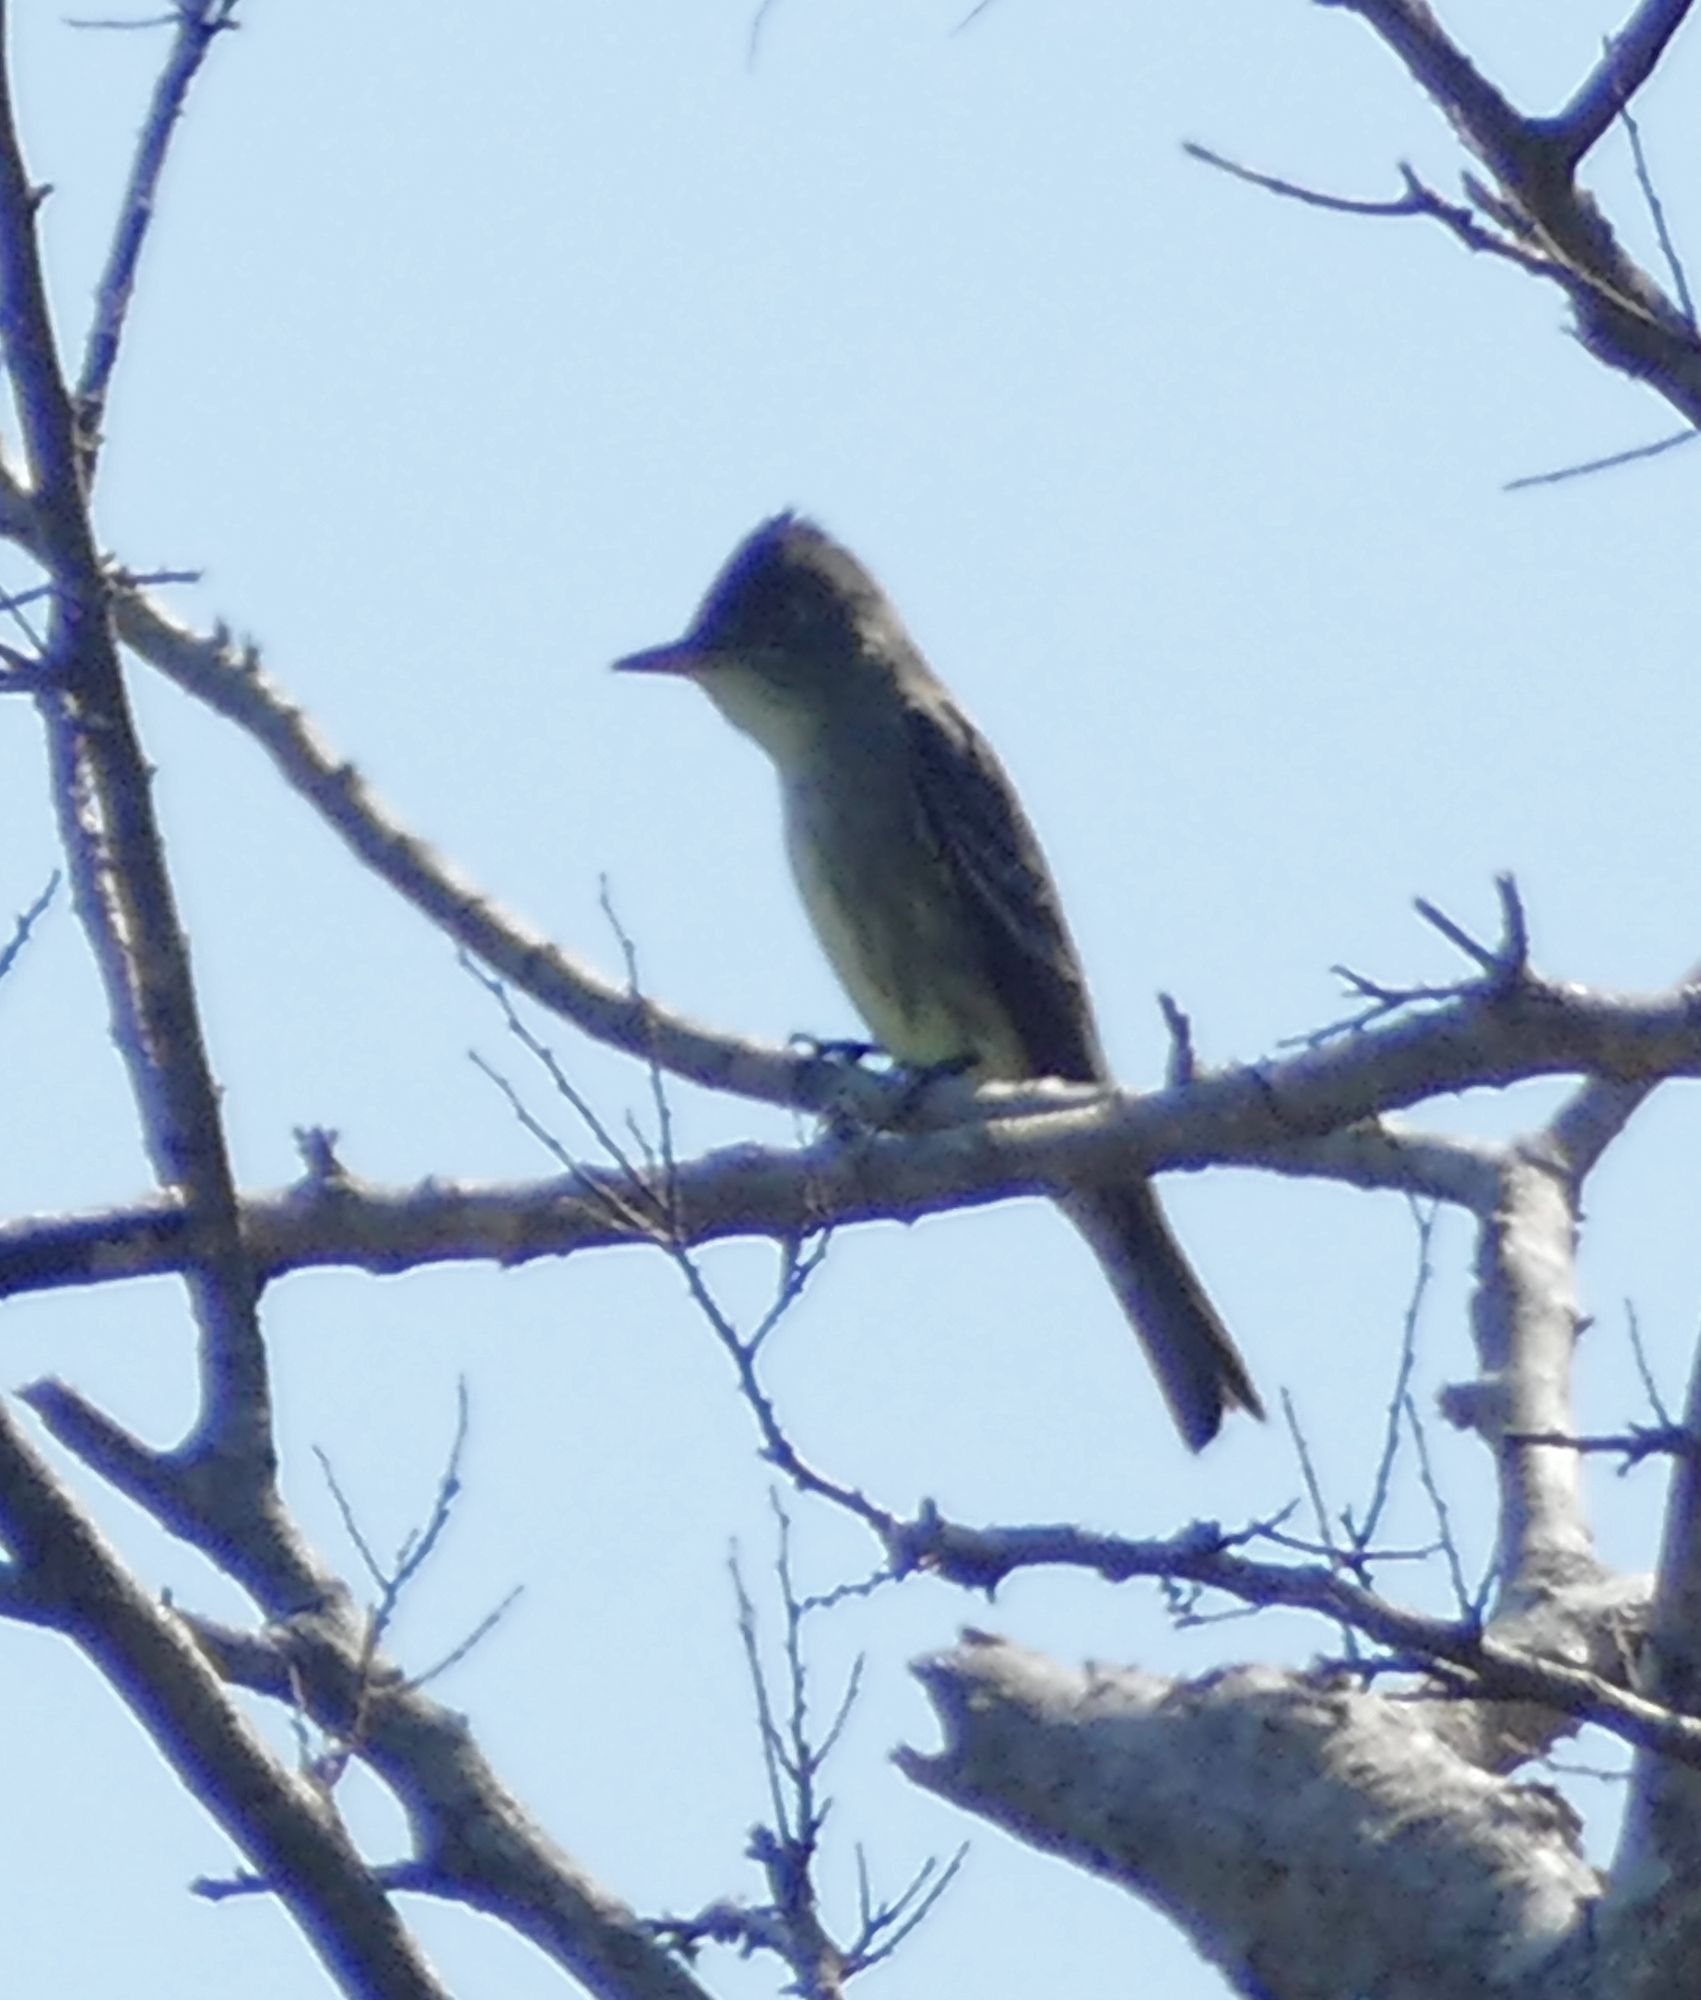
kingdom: Animalia
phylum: Chordata
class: Aves
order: Passeriformes
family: Tyrannidae
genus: Contopus
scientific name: Contopus cooperi
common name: Olive-sided flycatcher
